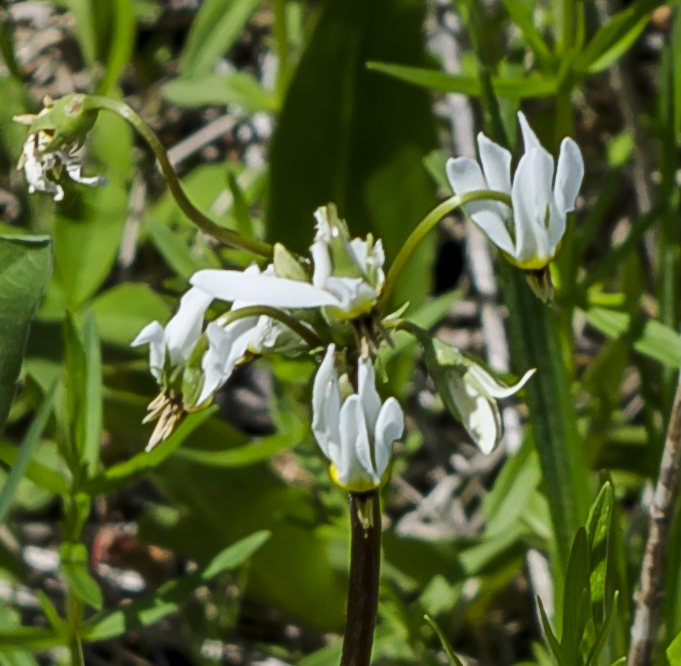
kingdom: Plantae
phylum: Tracheophyta
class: Magnoliopsida
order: Ericales
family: Primulaceae
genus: Dodecatheon
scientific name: Dodecatheon meadia
